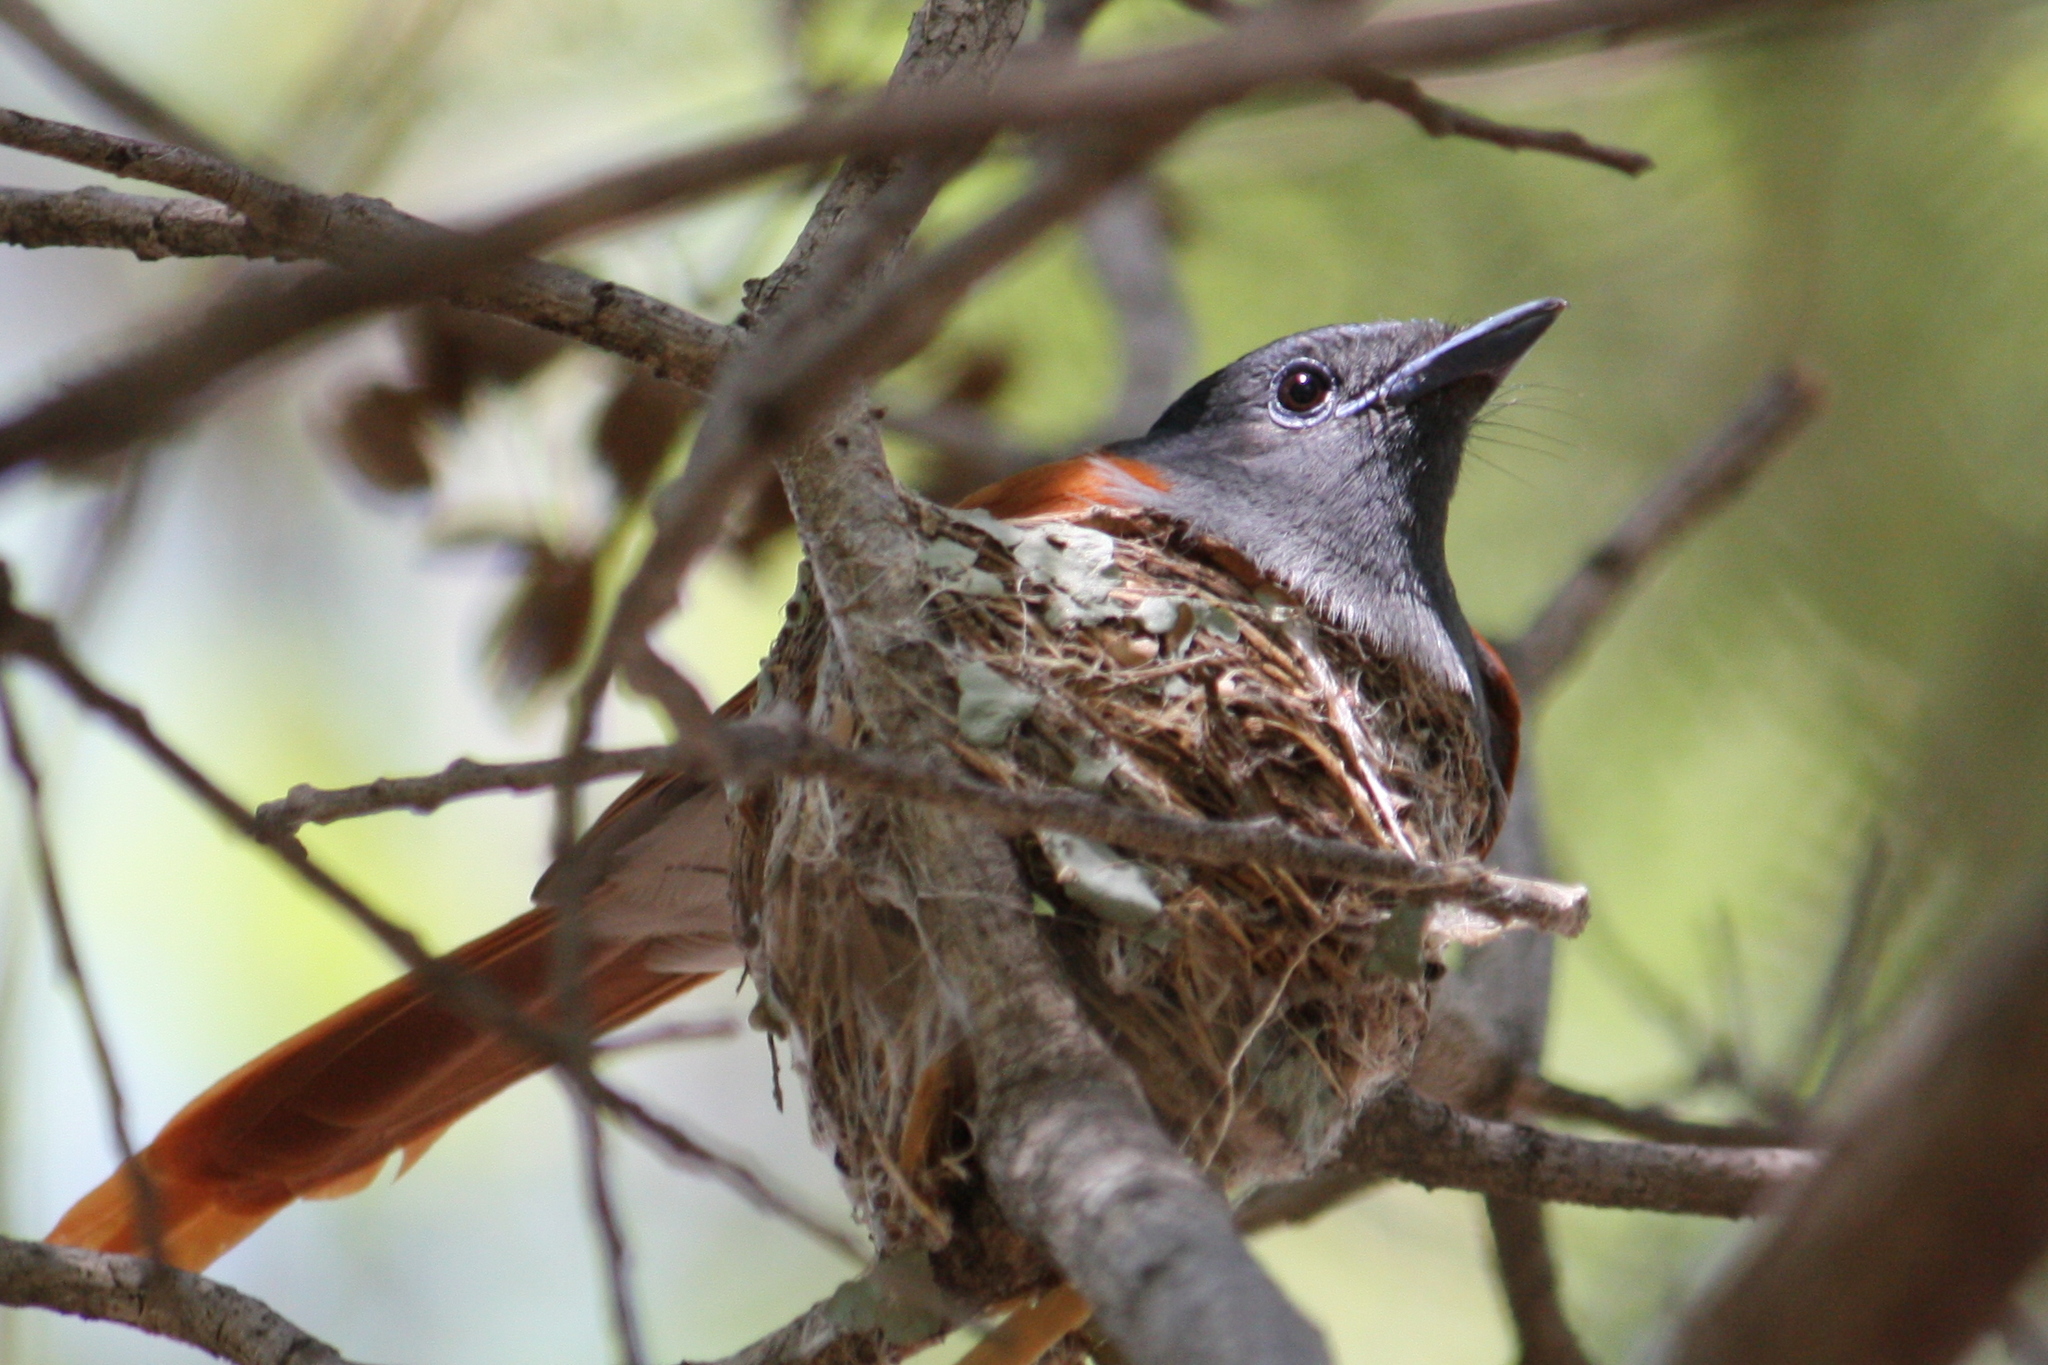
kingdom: Animalia
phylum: Chordata
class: Aves
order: Passeriformes
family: Monarchidae
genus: Terpsiphone
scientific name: Terpsiphone viridis
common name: African paradise flycatcher
